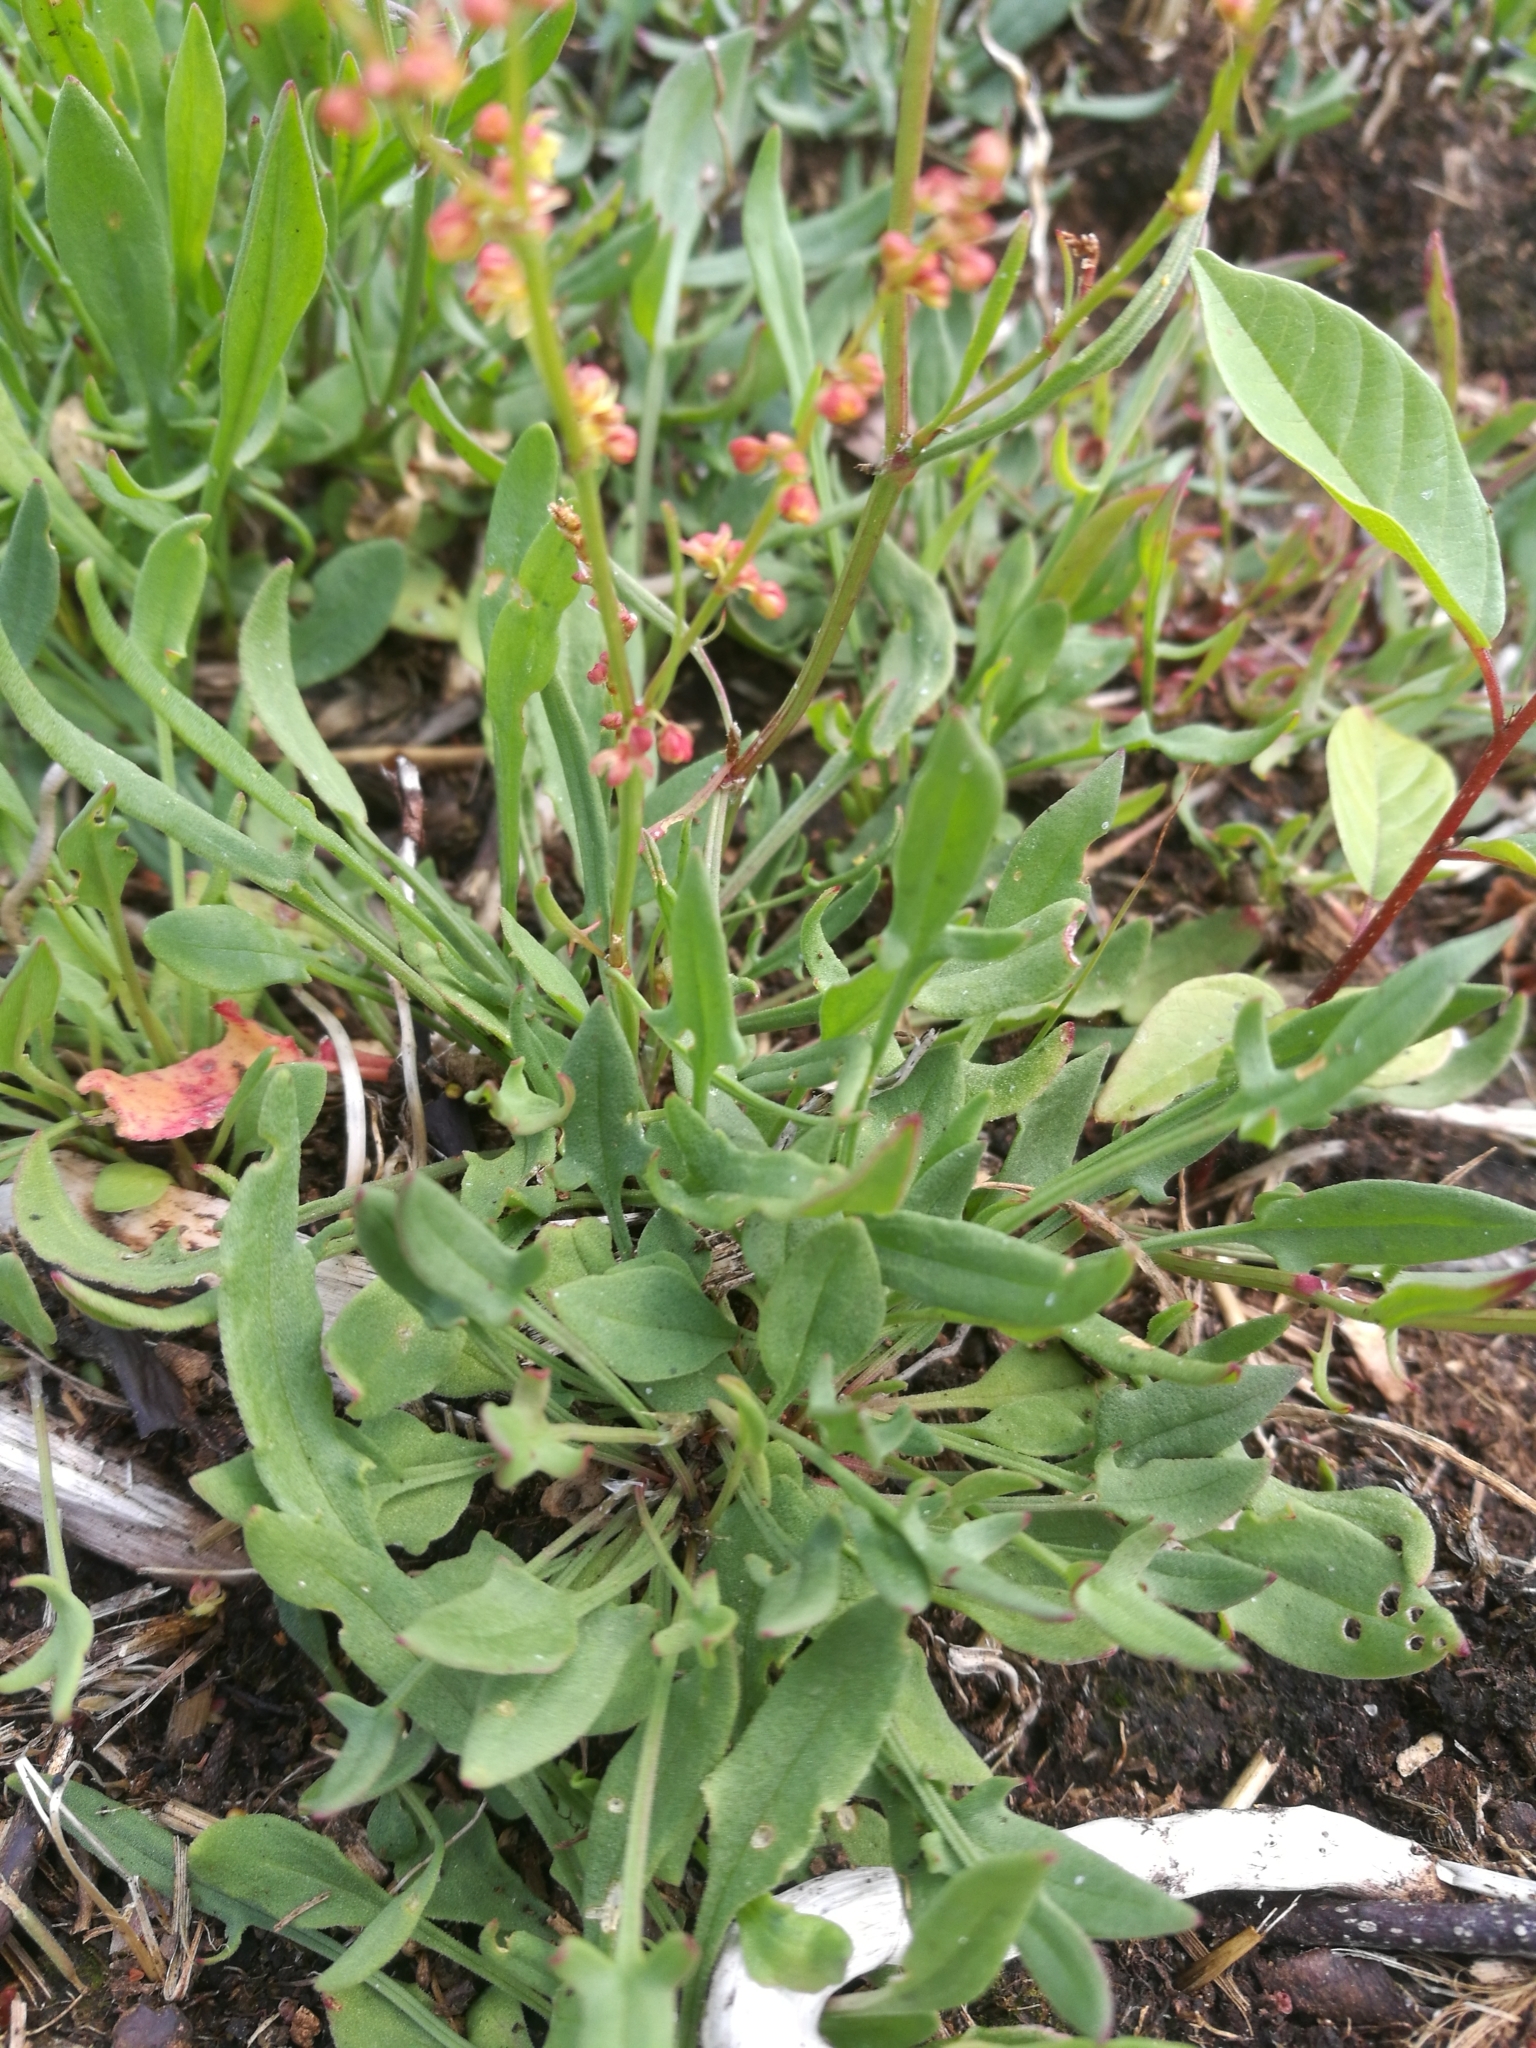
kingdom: Plantae
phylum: Tracheophyta
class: Magnoliopsida
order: Caryophyllales
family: Polygonaceae
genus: Rumex
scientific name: Rumex acetosella
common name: Common sheep sorrel
